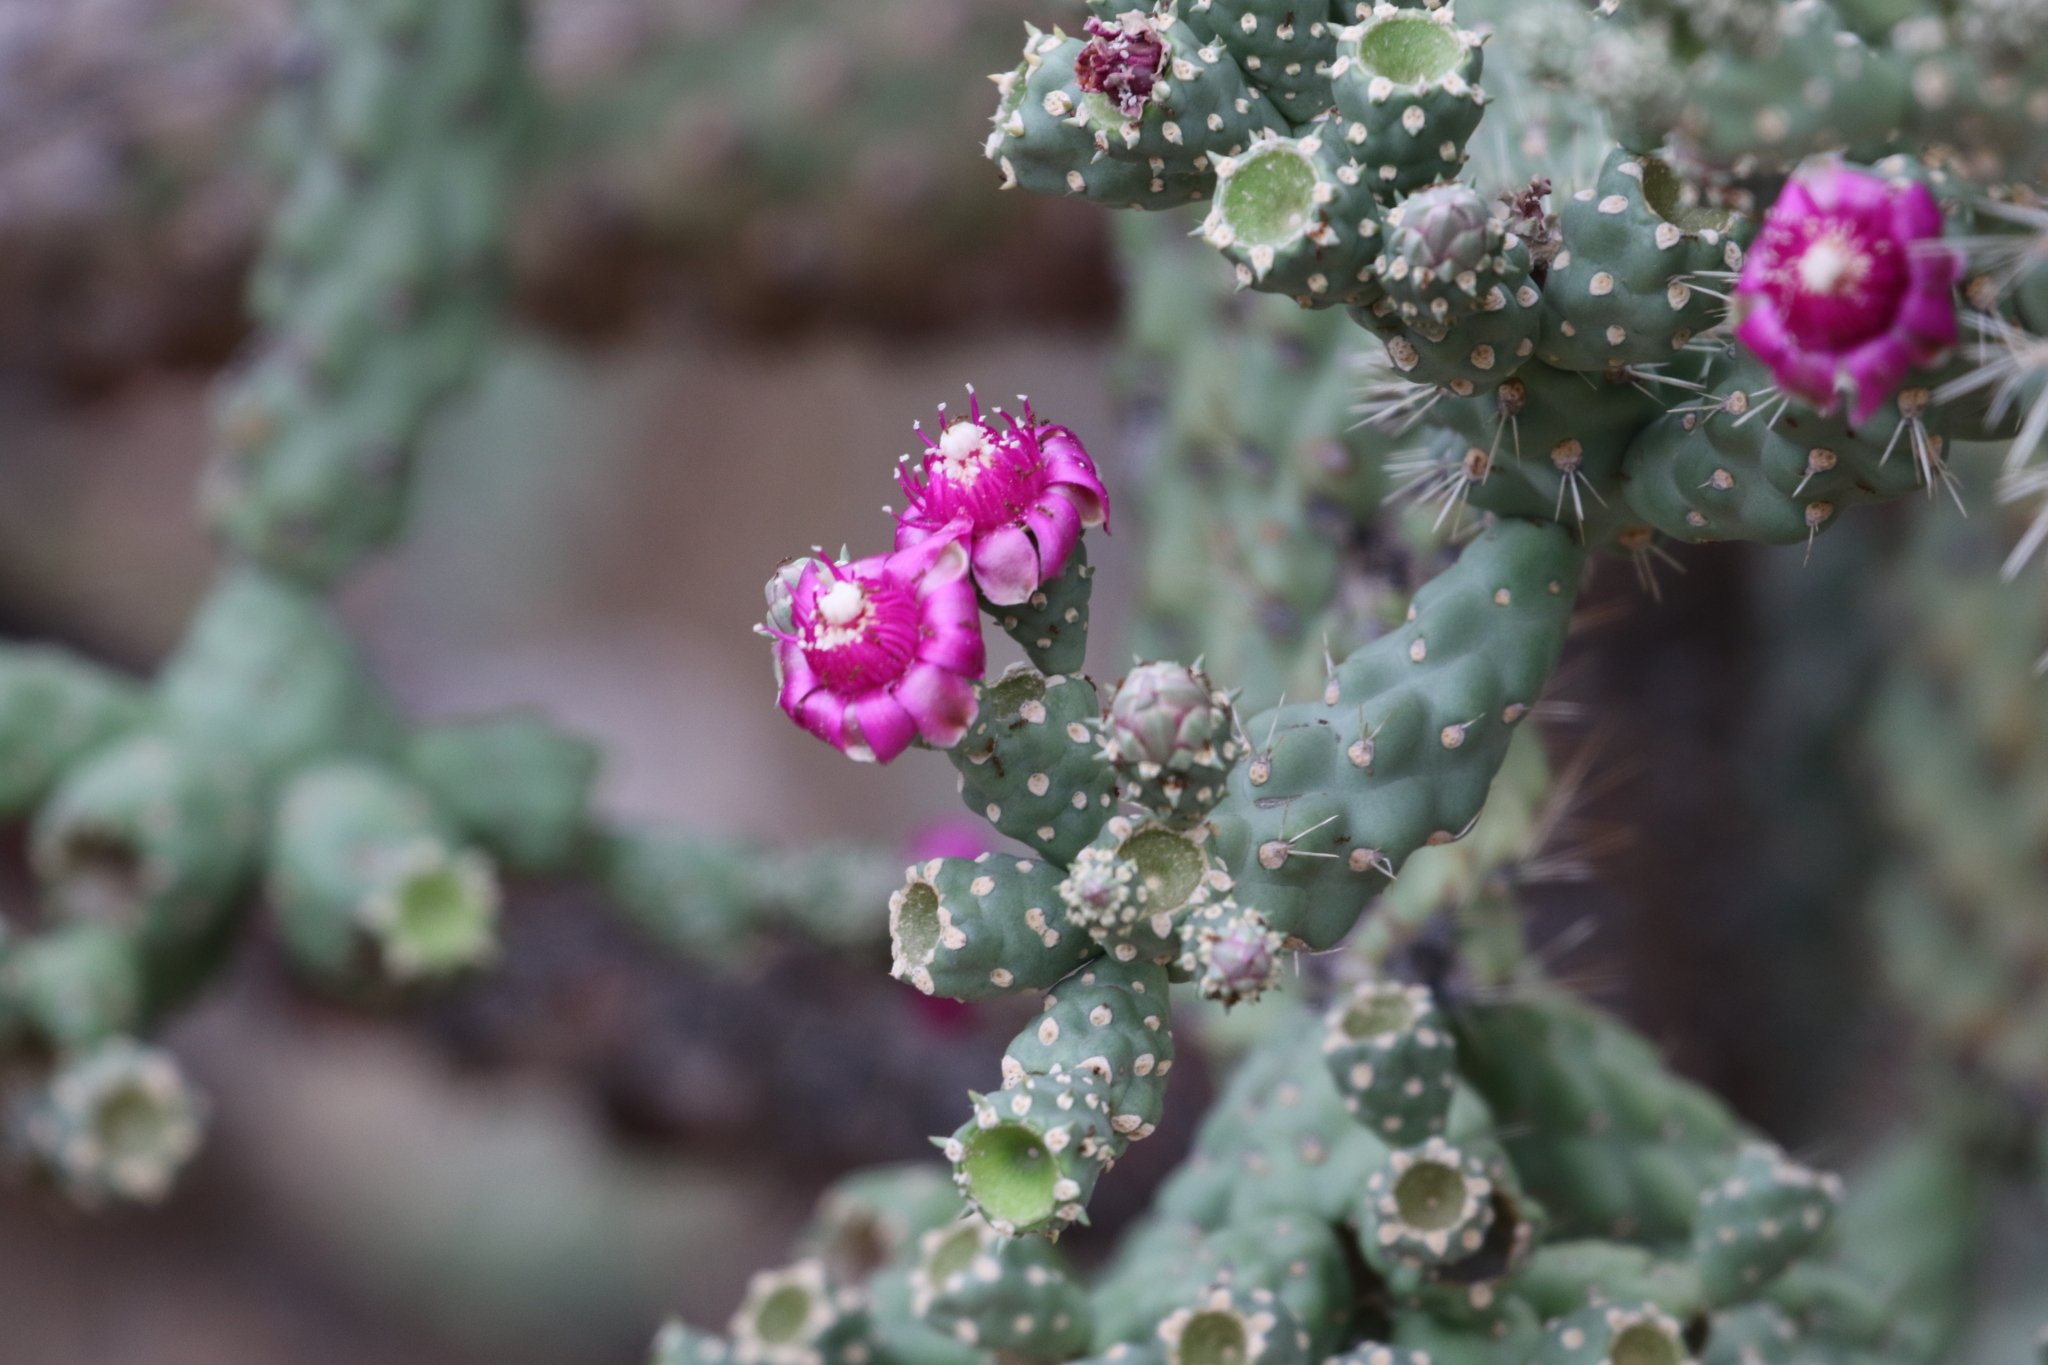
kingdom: Plantae
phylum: Tracheophyta
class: Magnoliopsida
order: Caryophyllales
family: Cactaceae
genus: Cylindropuntia
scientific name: Cylindropuntia fulgida
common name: Jumping cholla
